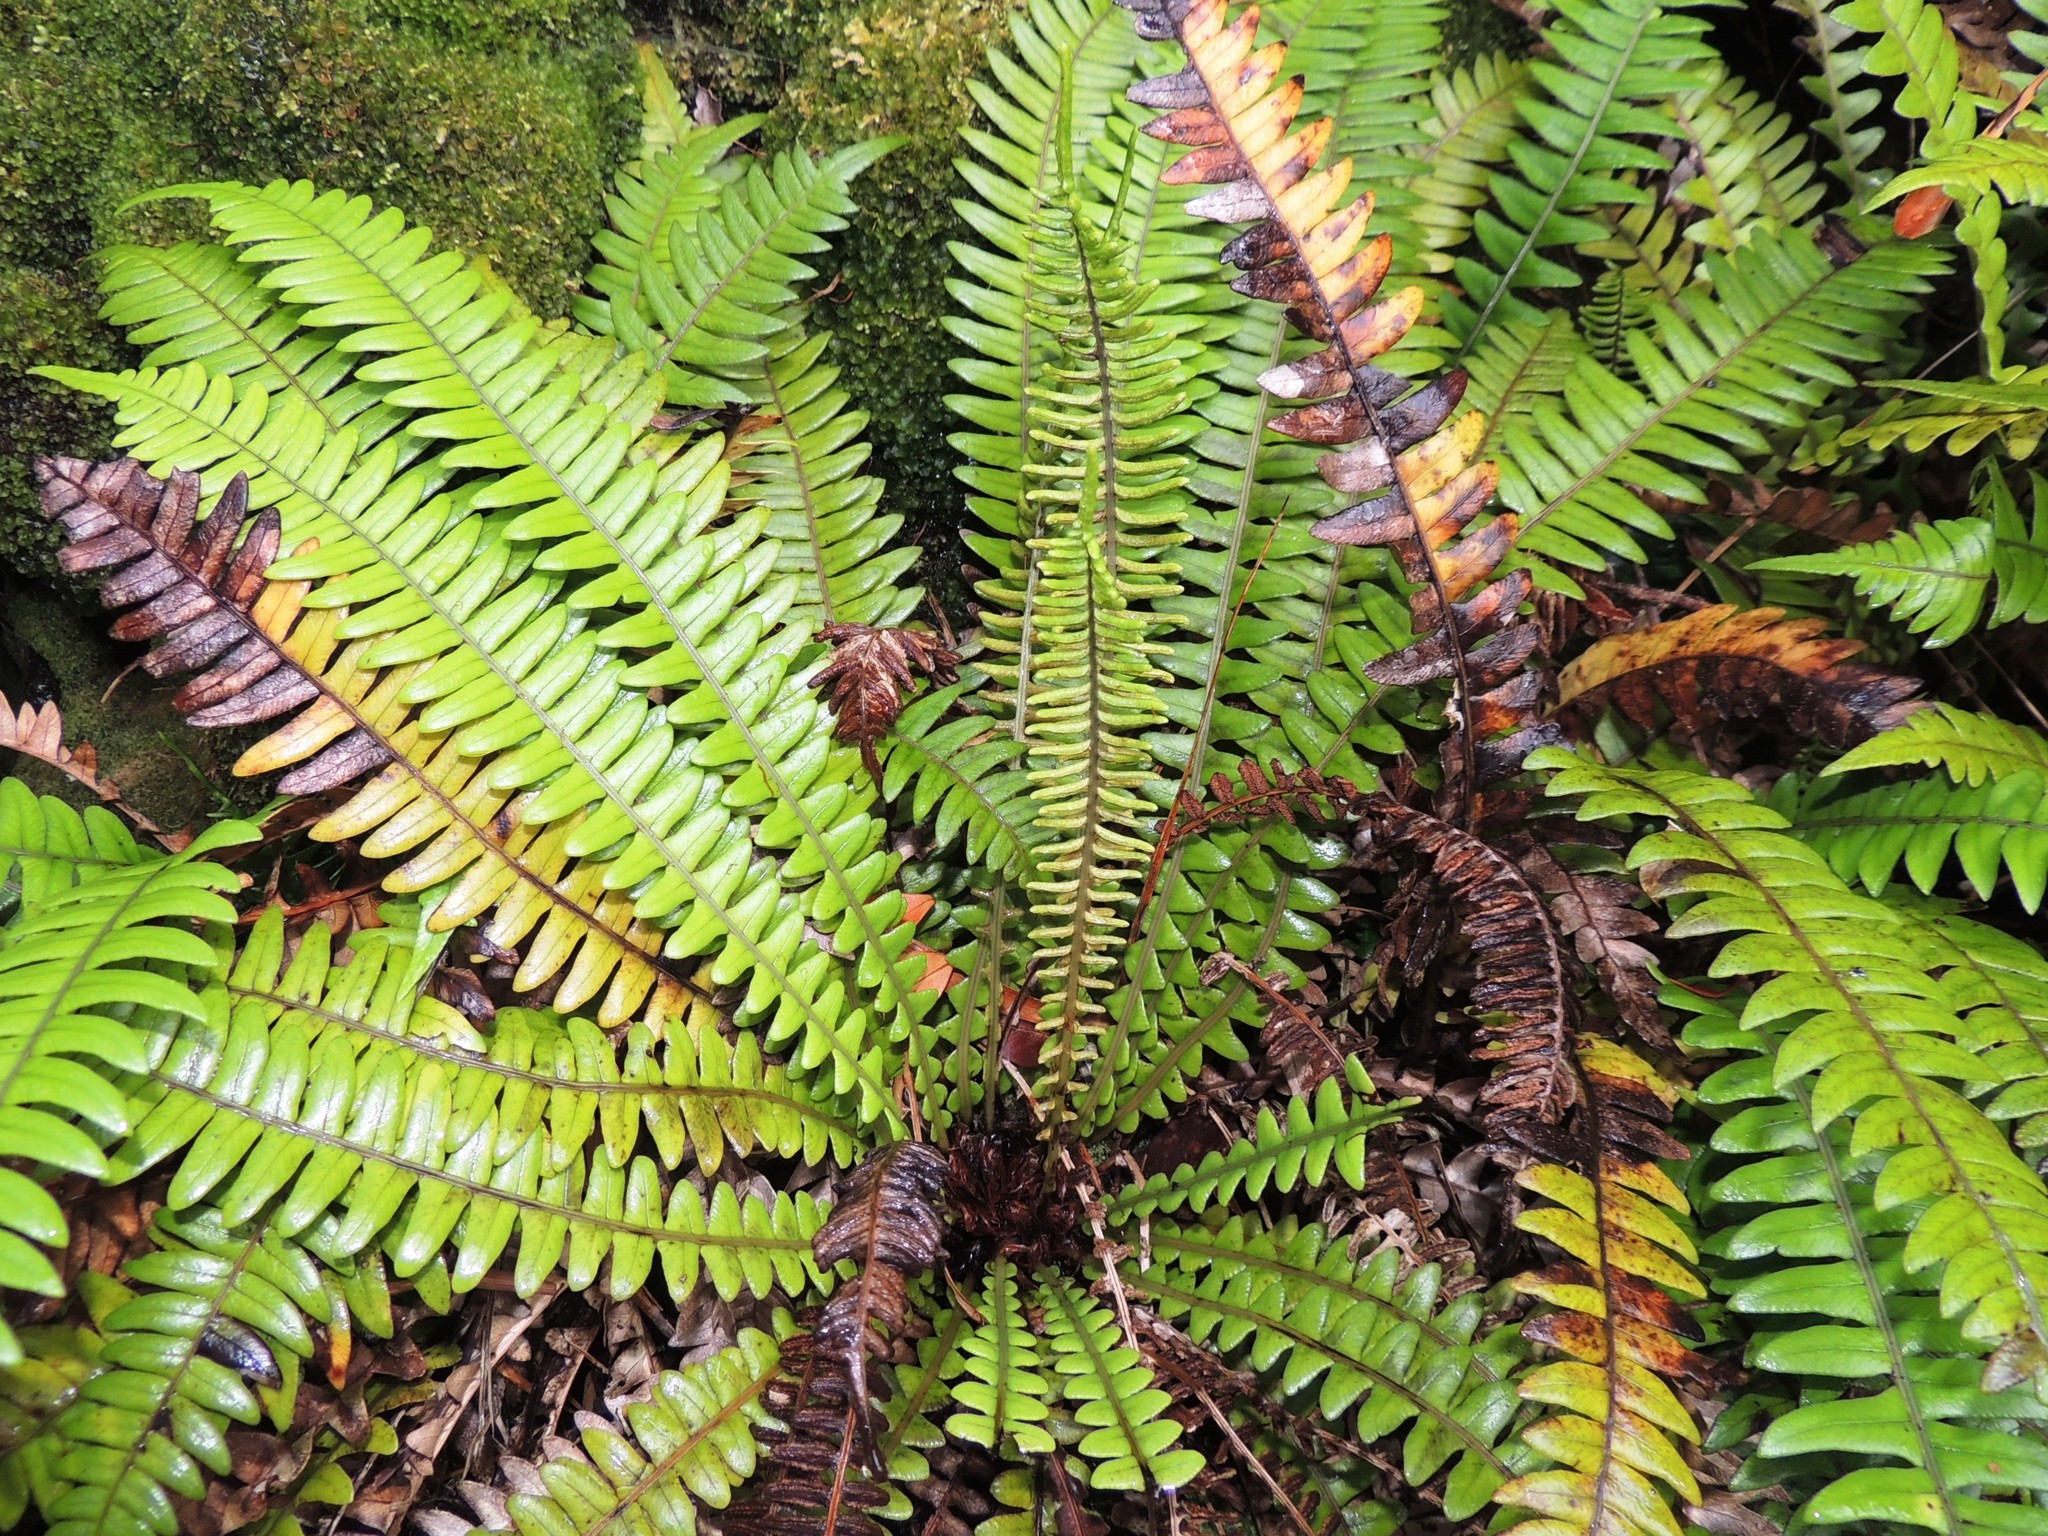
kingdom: Plantae
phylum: Tracheophyta
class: Polypodiopsida
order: Polypodiales
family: Blechnaceae
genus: Austroblechnum
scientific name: Austroblechnum durum
